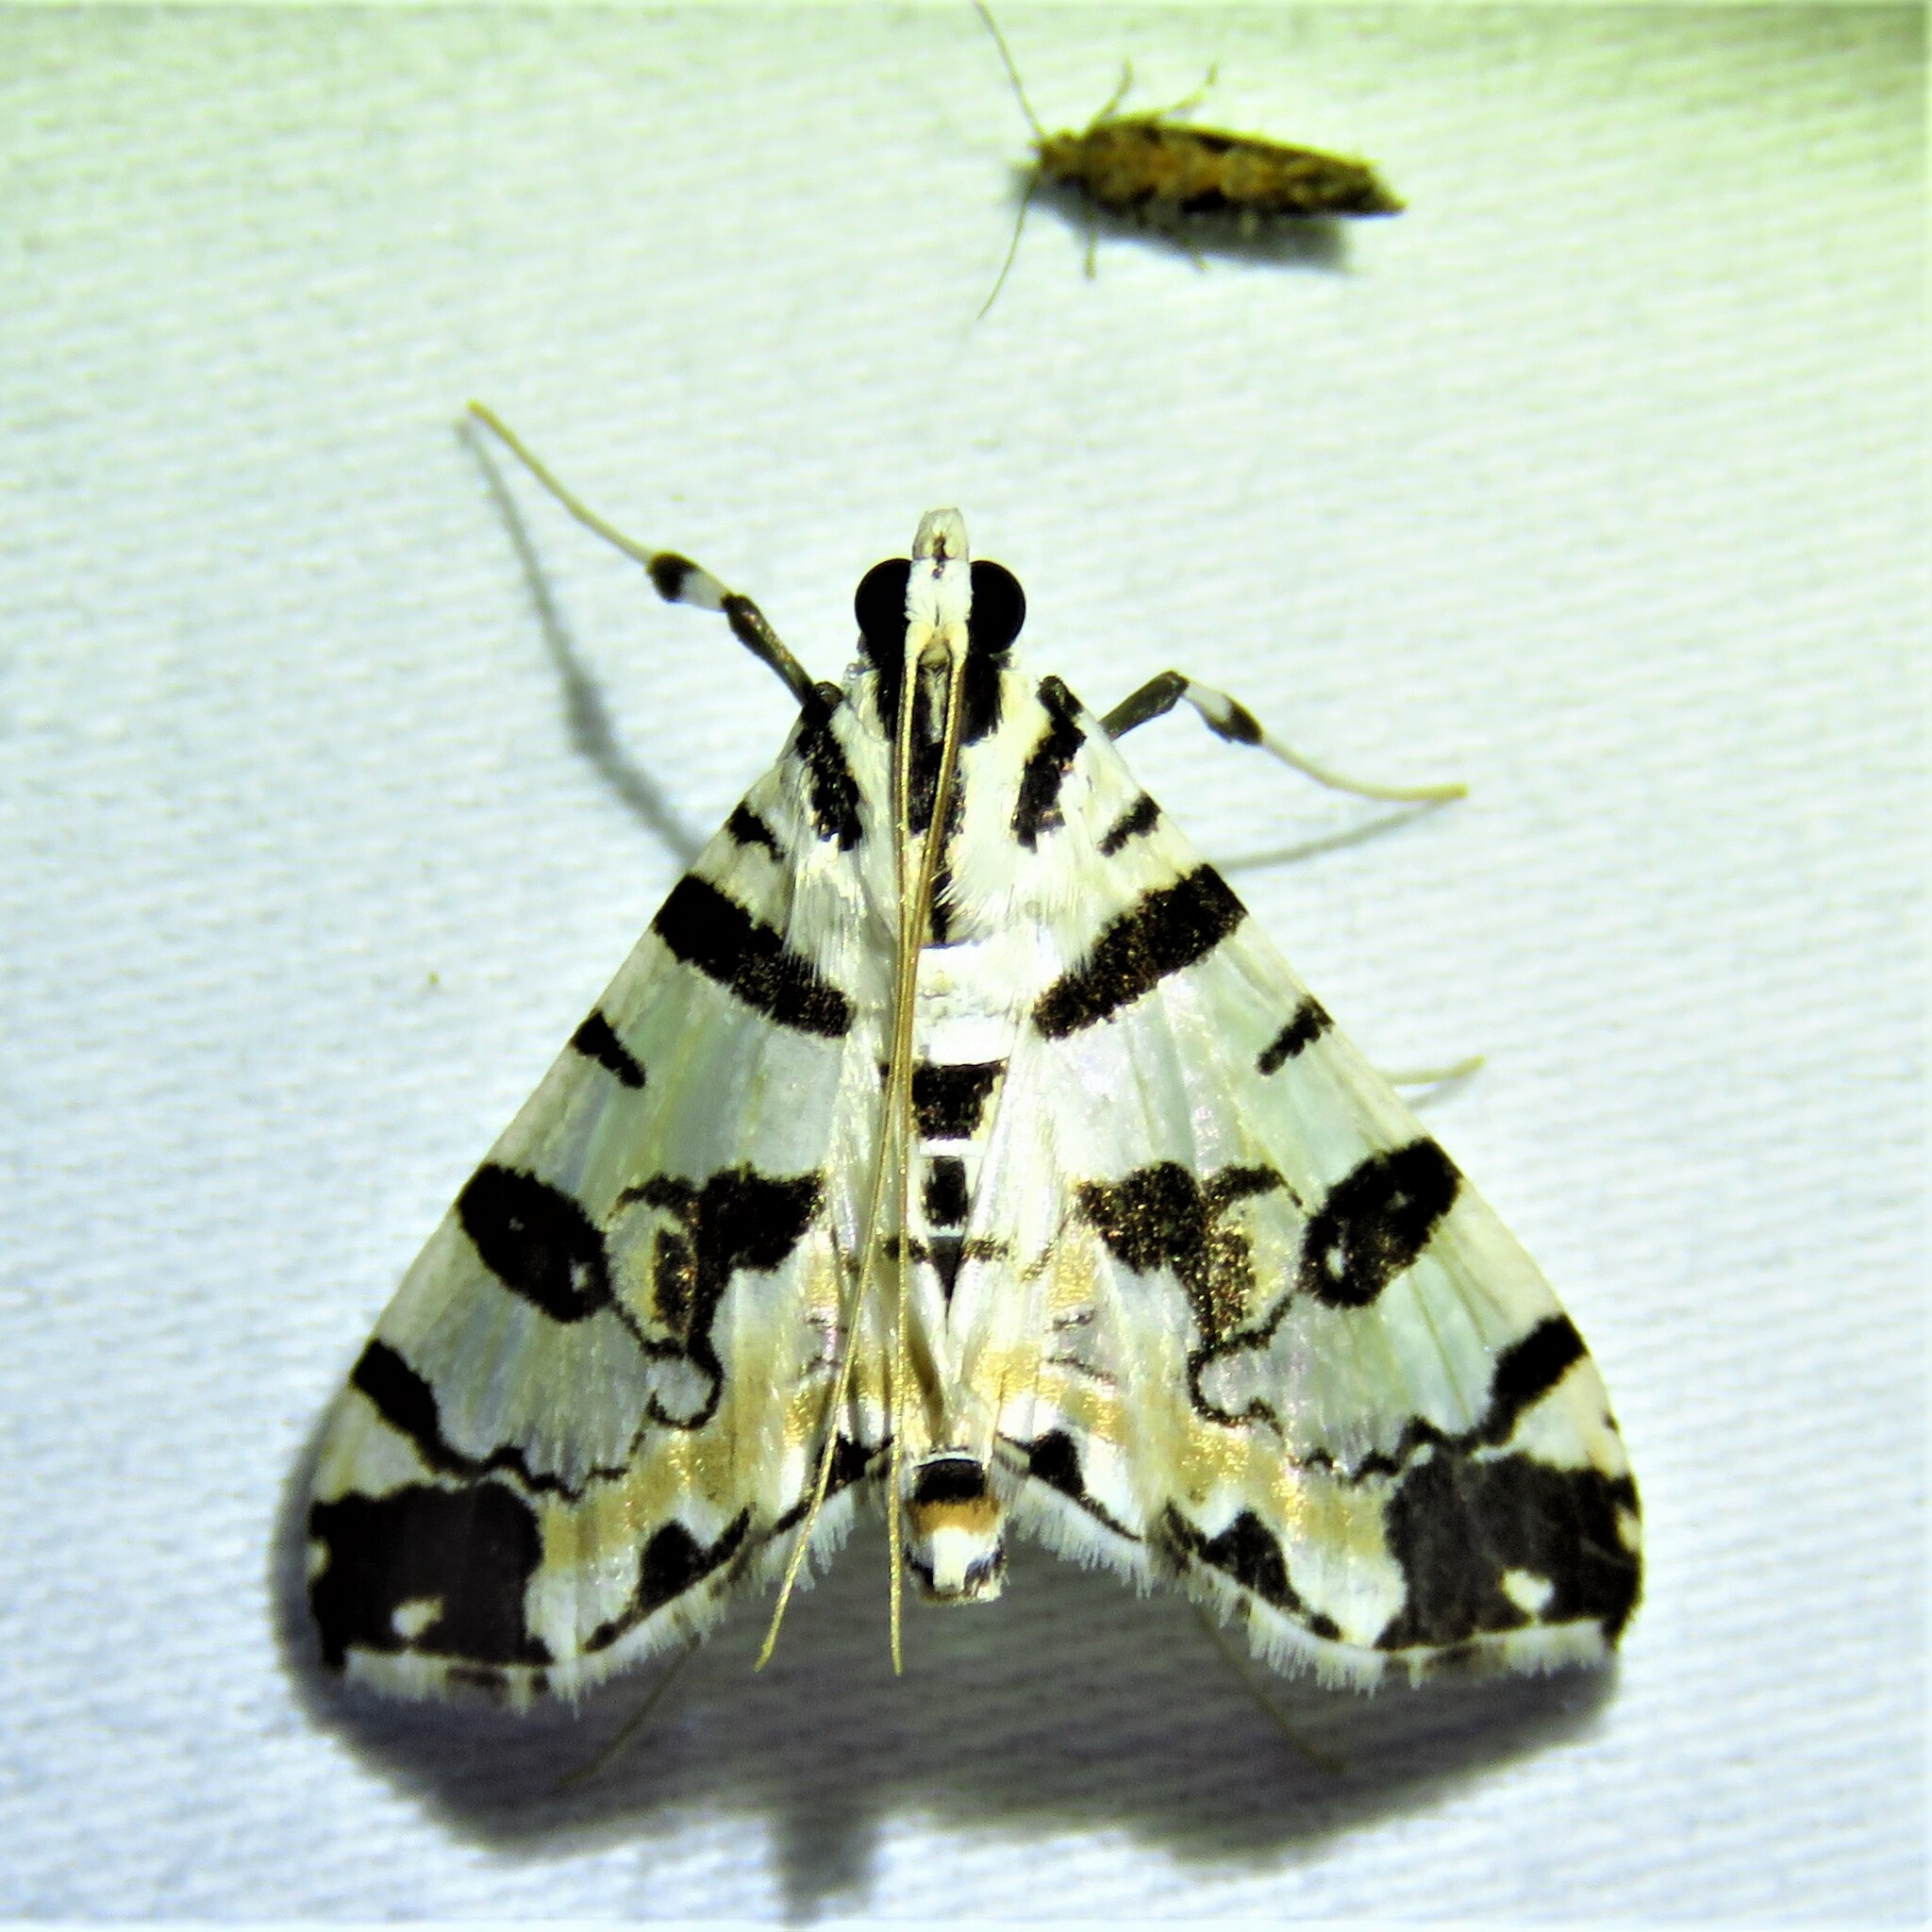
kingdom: Animalia
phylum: Arthropoda
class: Insecta
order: Lepidoptera
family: Crambidae
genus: Conchylodes
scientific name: Conchylodes salamisalis
